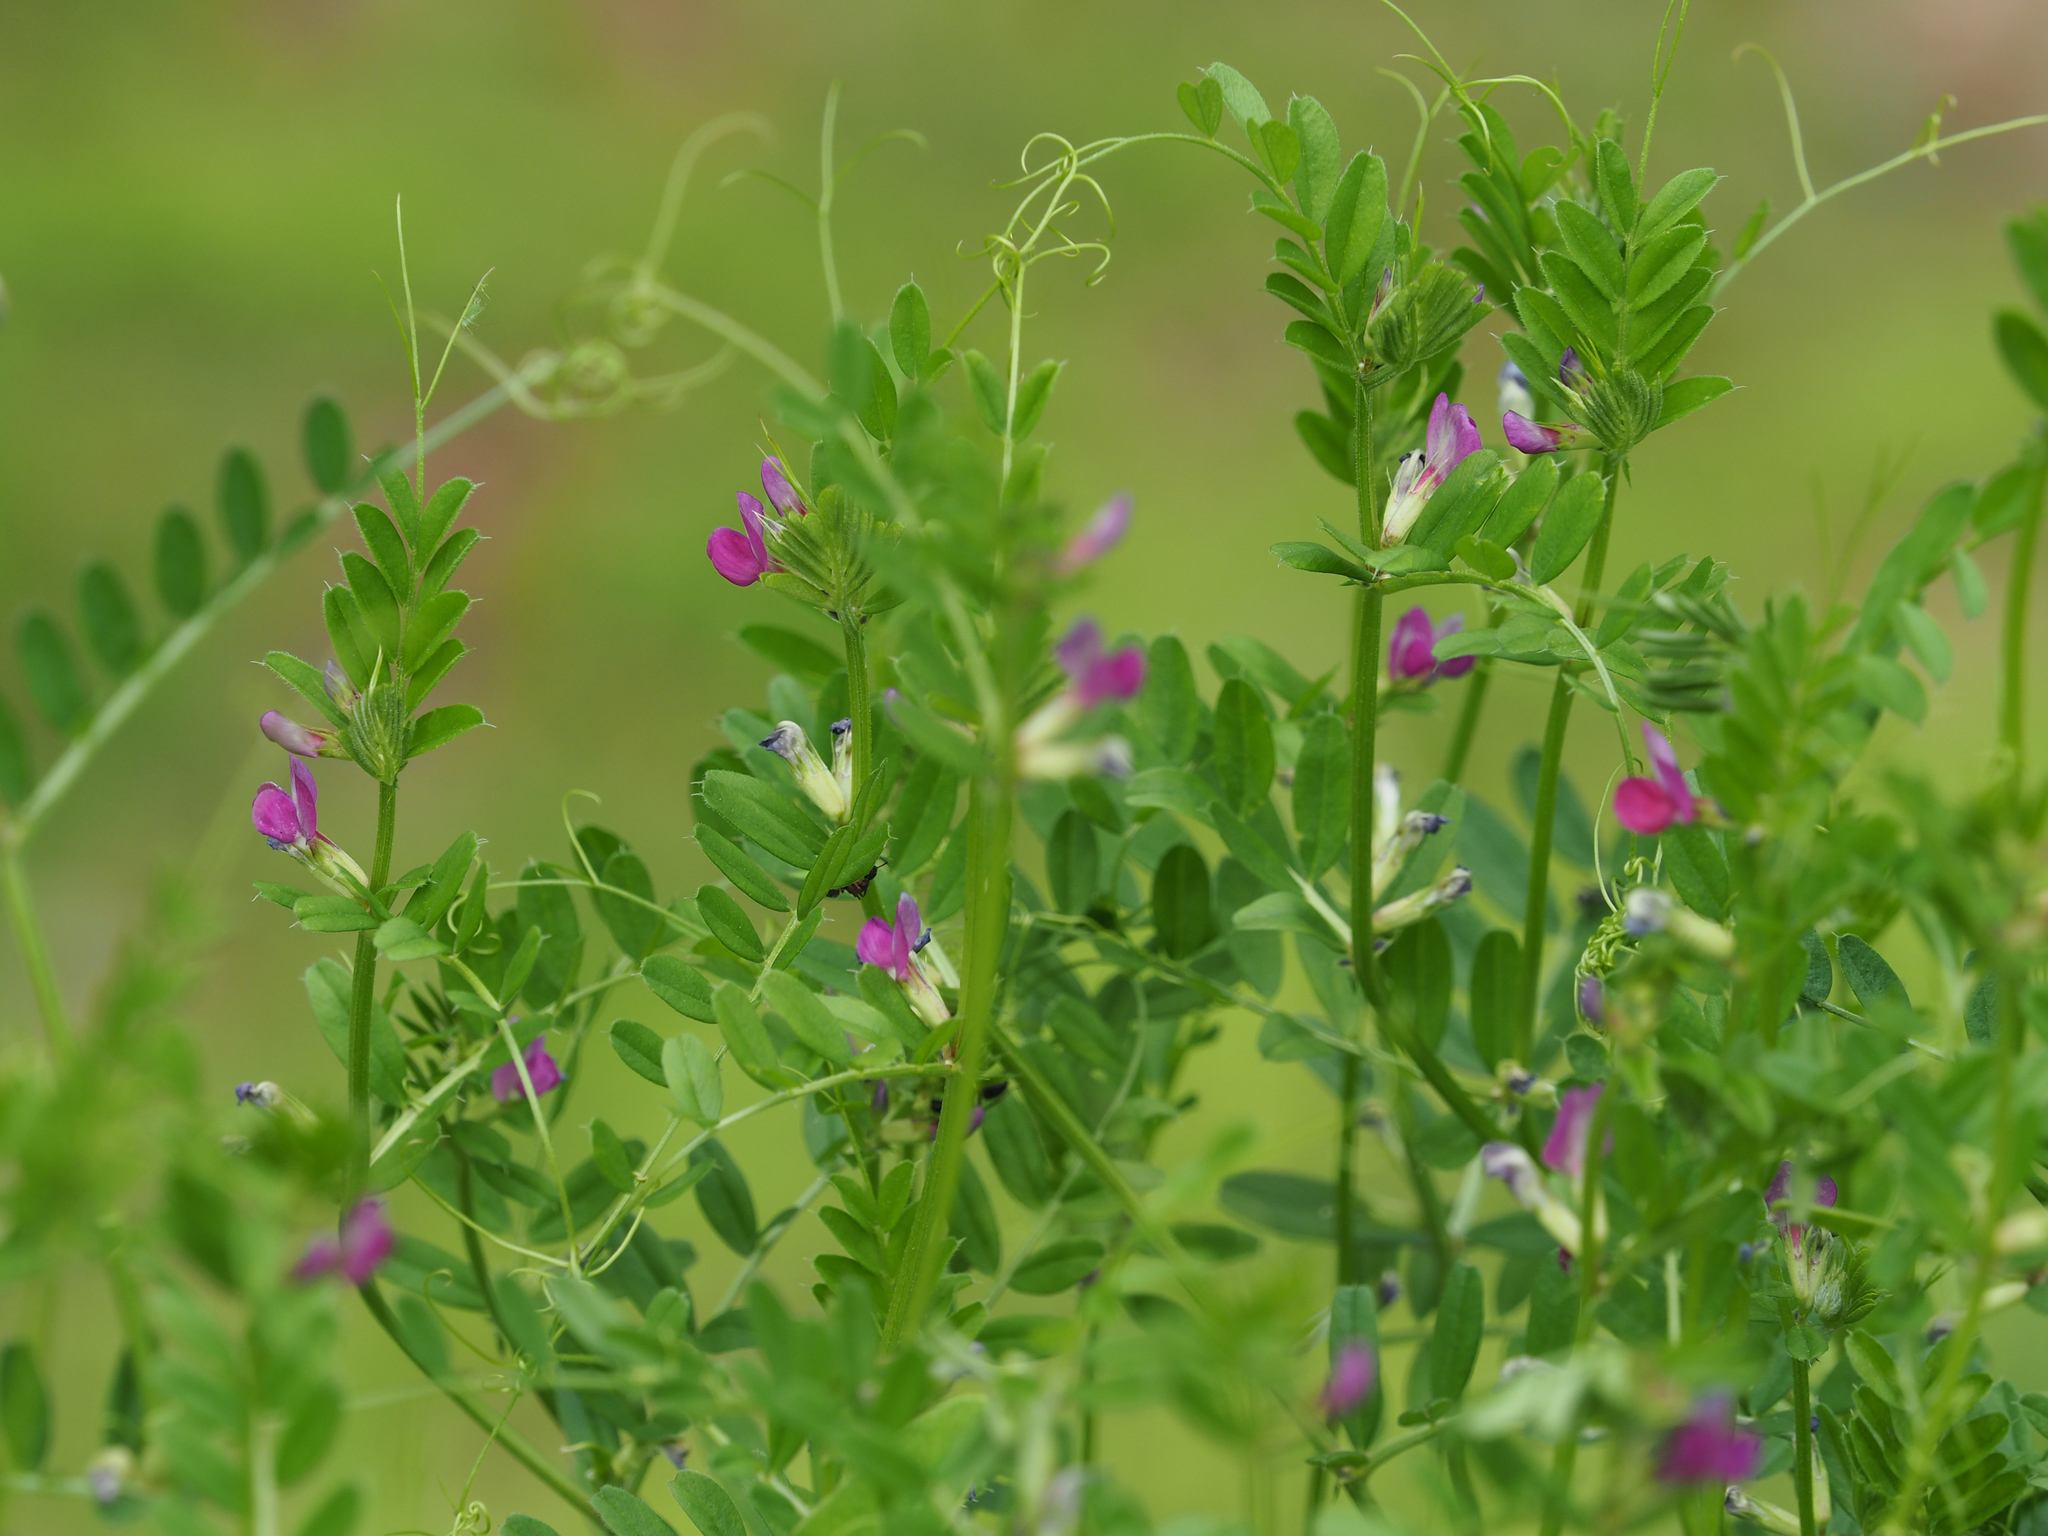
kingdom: Plantae
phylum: Tracheophyta
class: Magnoliopsida
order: Fabales
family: Fabaceae
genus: Vicia
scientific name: Vicia sativa
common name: Garden vetch
